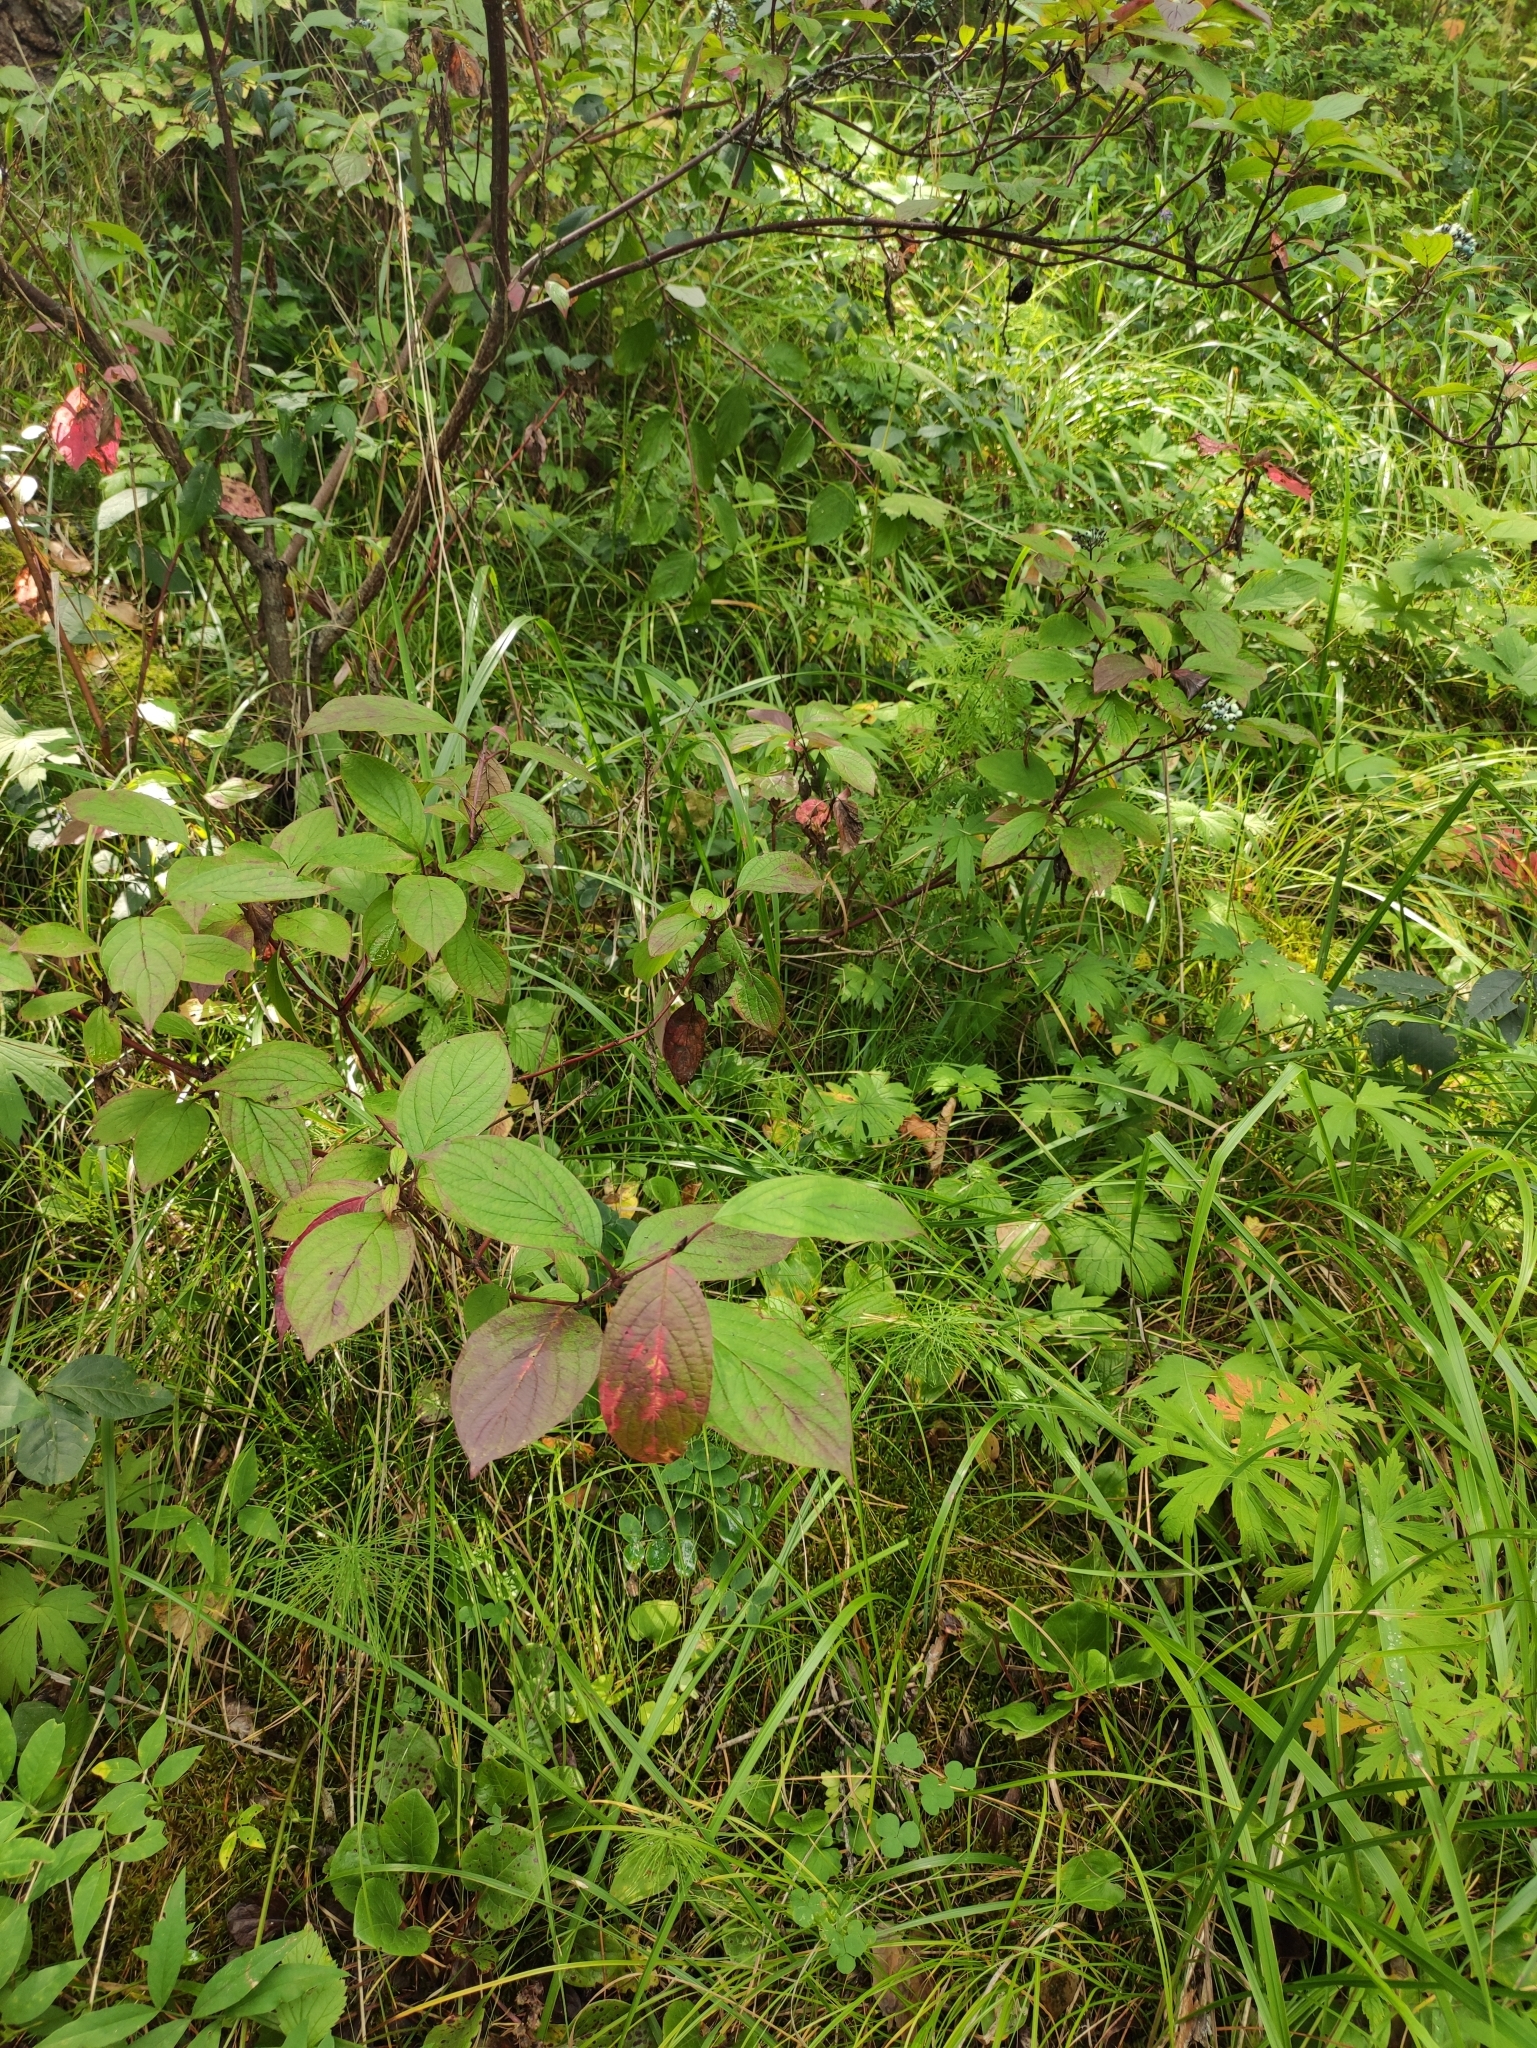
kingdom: Plantae
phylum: Tracheophyta
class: Magnoliopsida
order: Cornales
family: Cornaceae
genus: Cornus
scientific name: Cornus alba
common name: White dogwood
